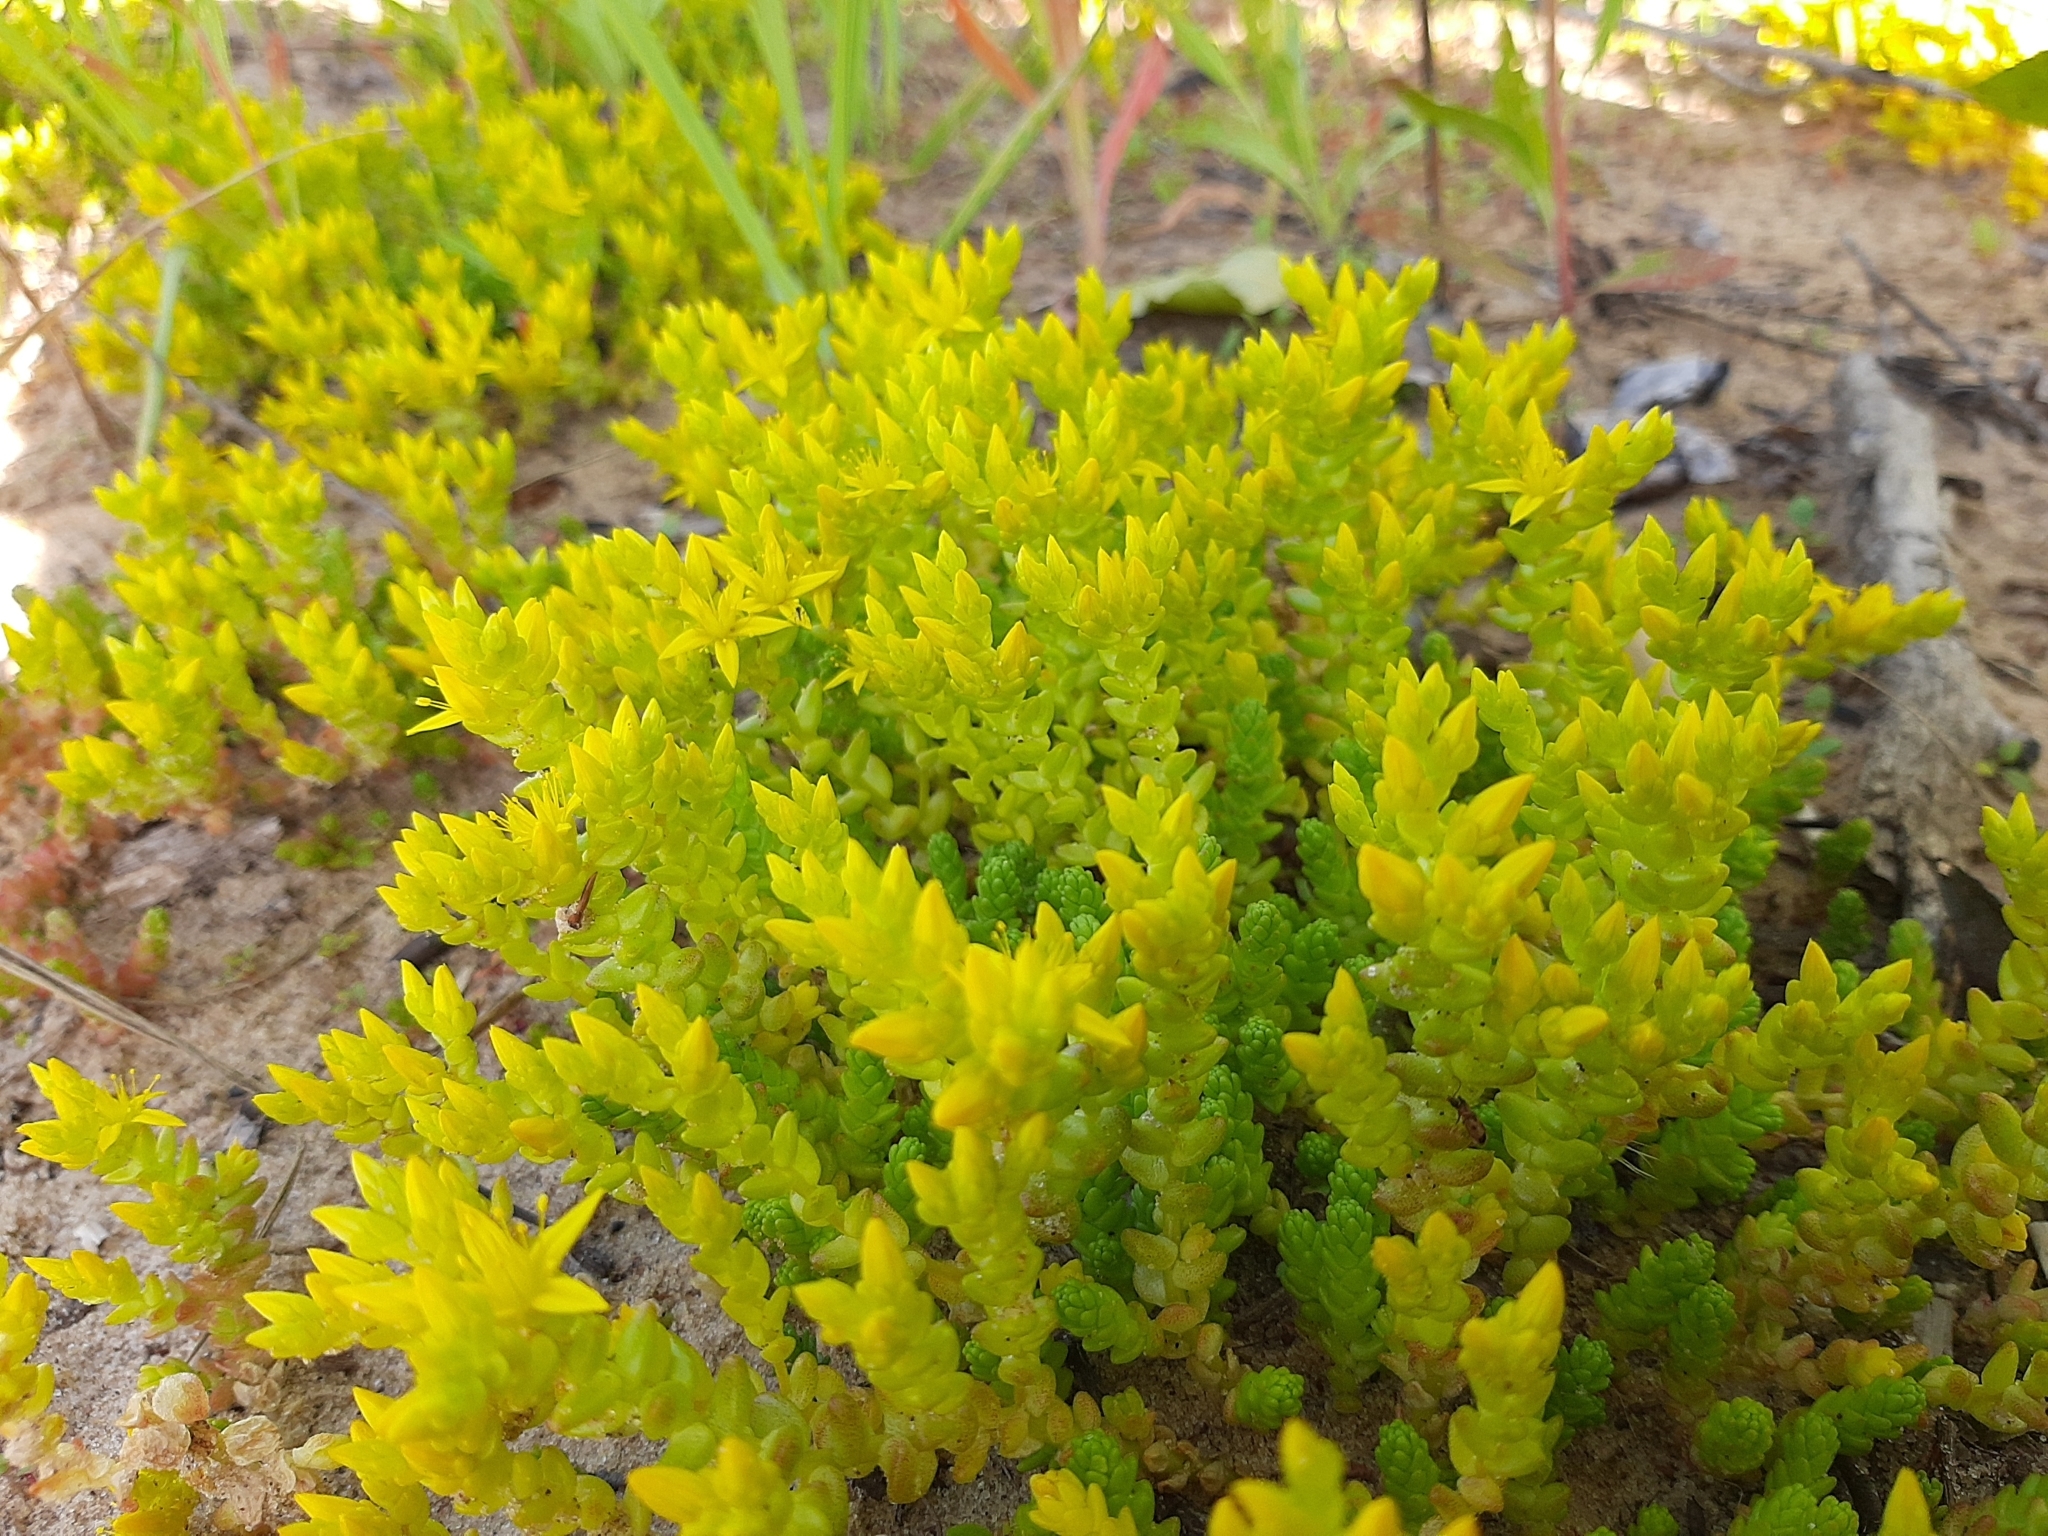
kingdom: Plantae
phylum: Tracheophyta
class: Magnoliopsida
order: Saxifragales
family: Crassulaceae
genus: Sedum
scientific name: Sedum acre
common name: Biting stonecrop
